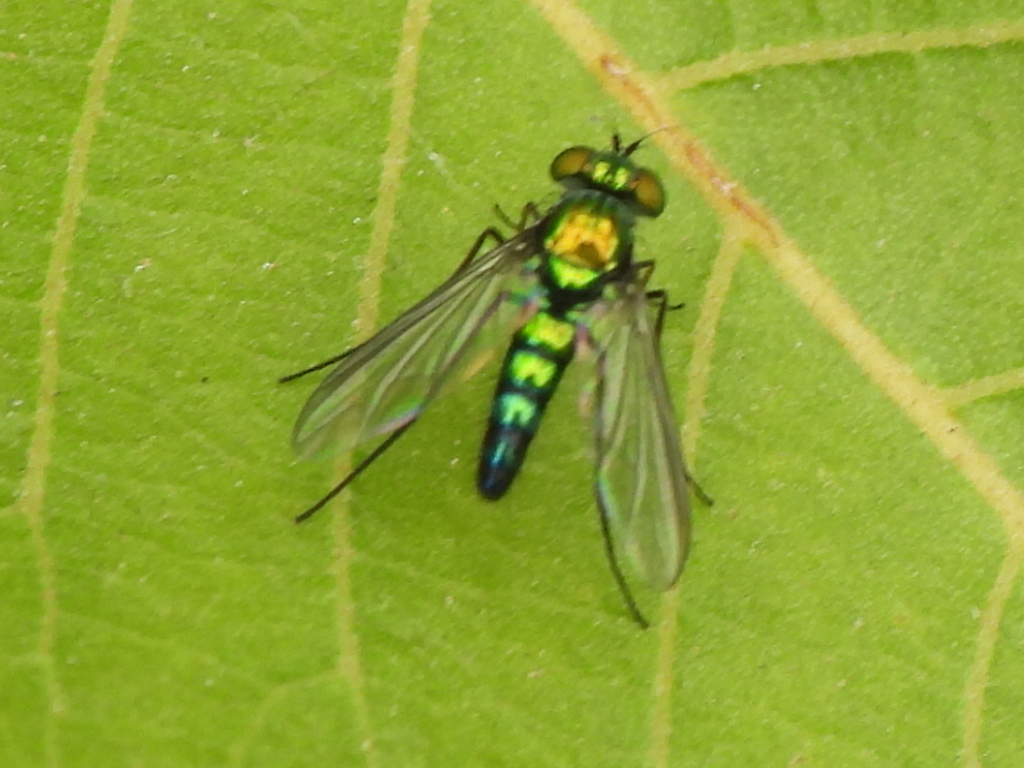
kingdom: Animalia
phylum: Arthropoda
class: Insecta
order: Diptera
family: Dolichopodidae
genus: Condylostylus
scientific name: Condylostylus longicornis
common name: Long-legged fly
